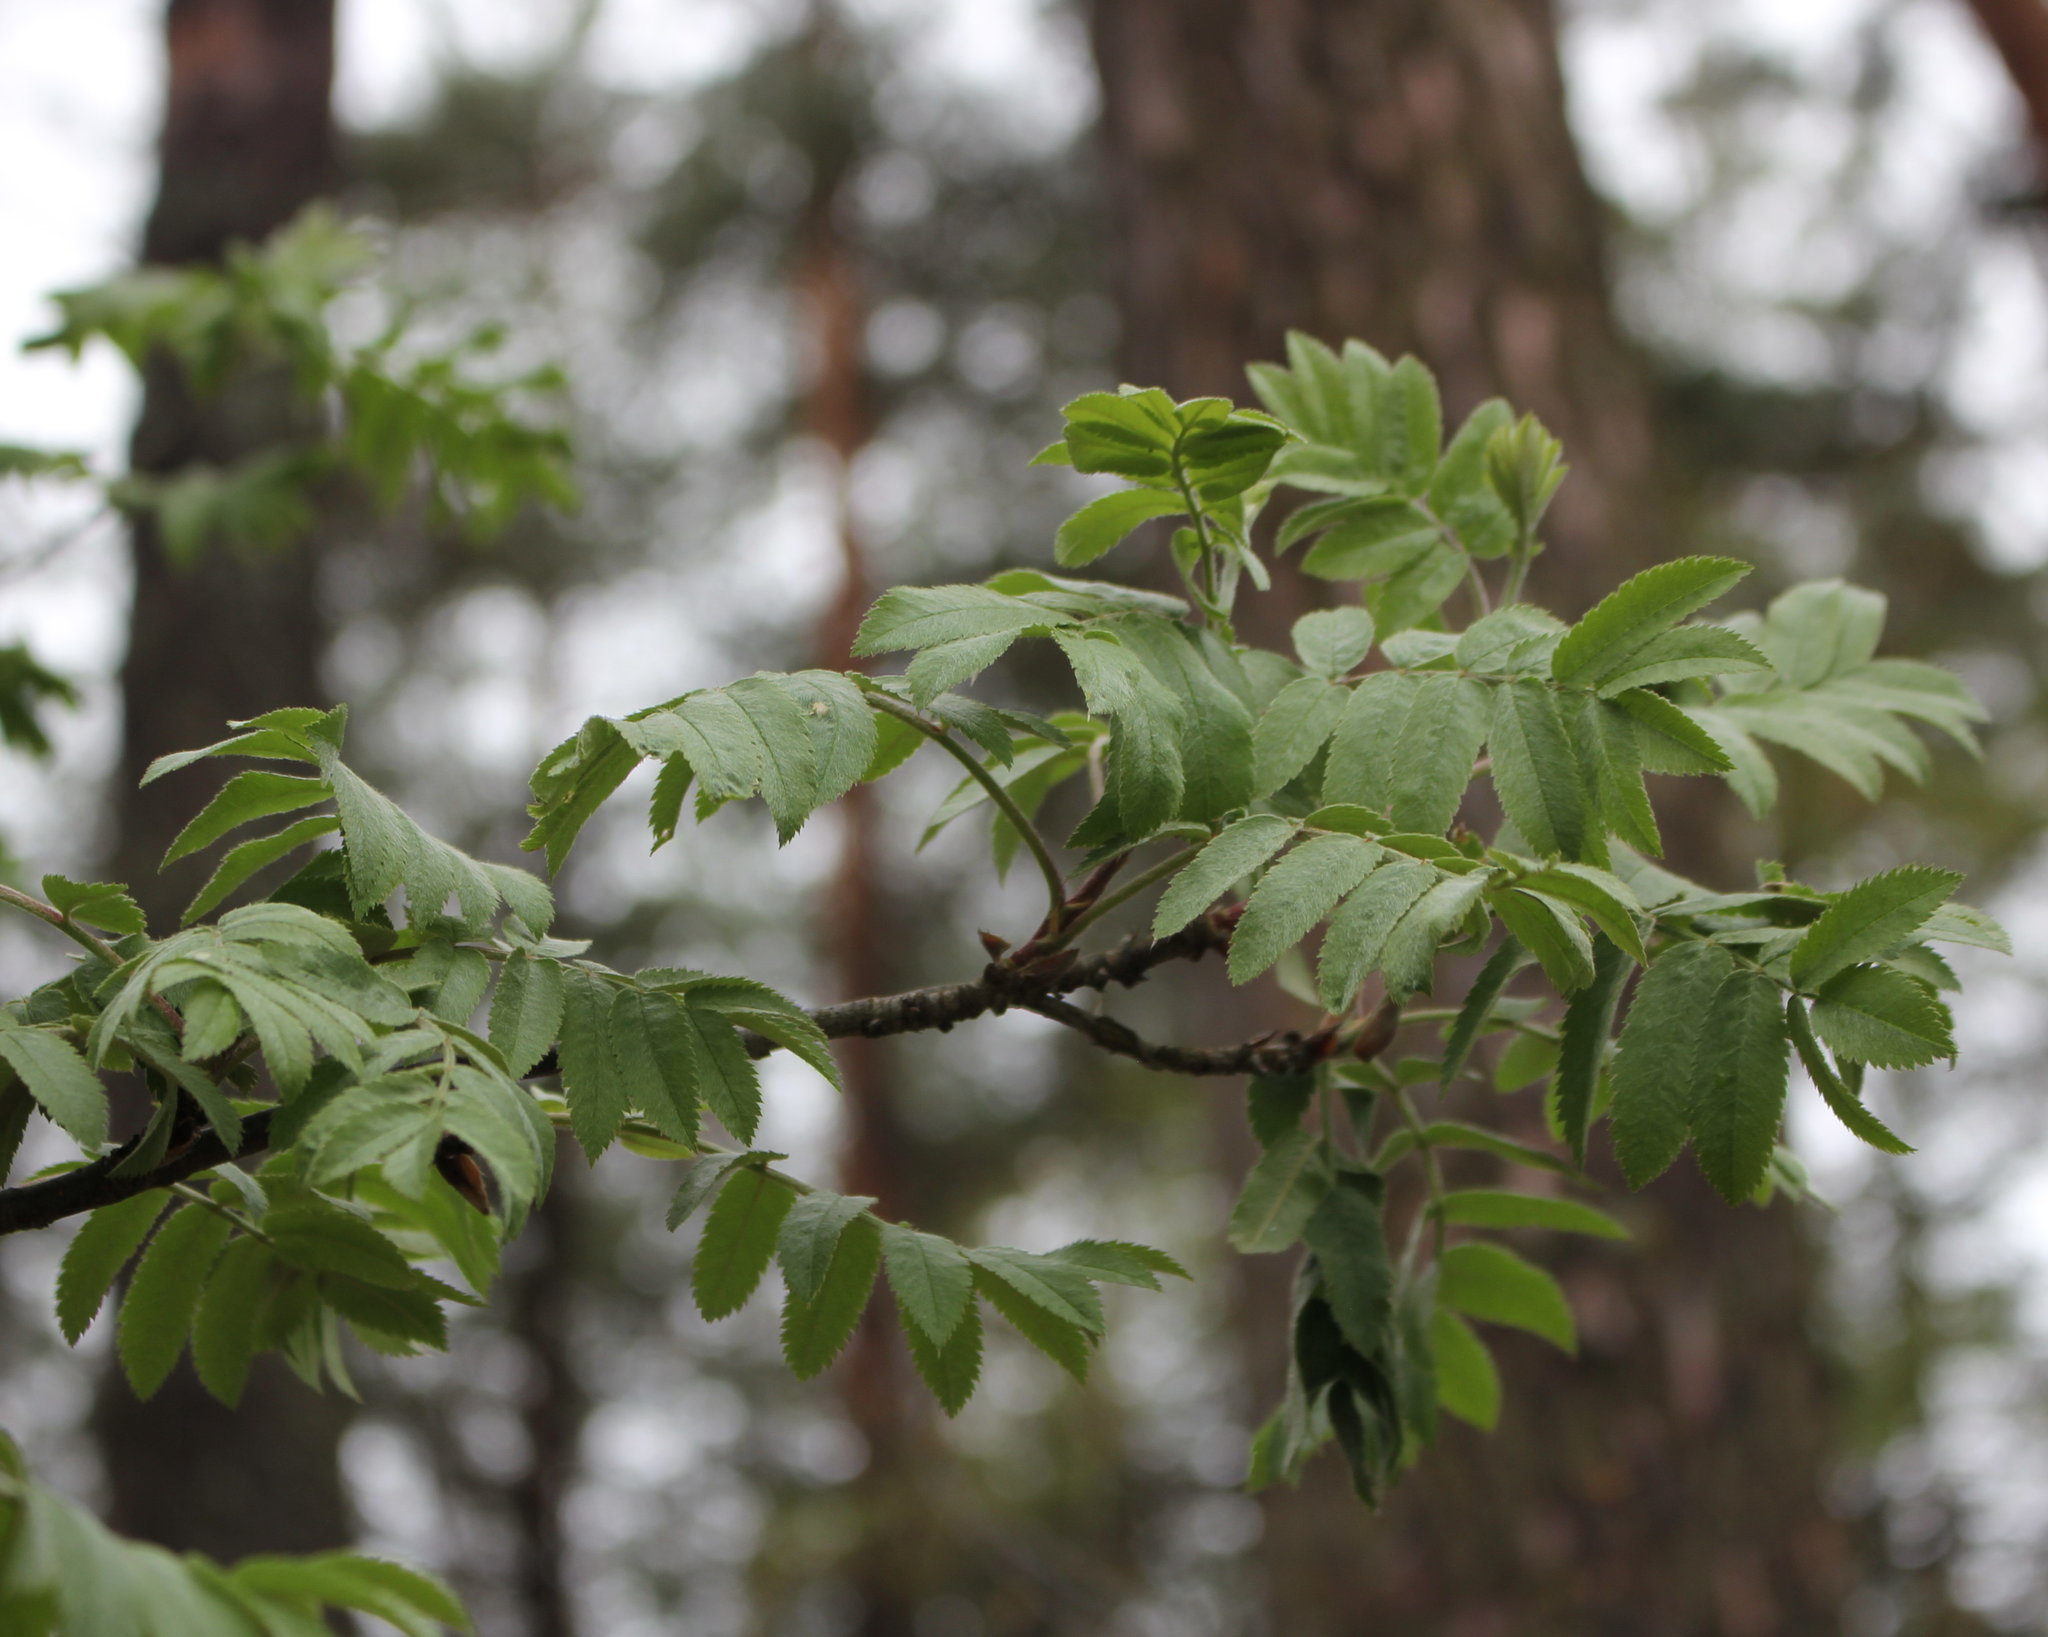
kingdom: Plantae
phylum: Tracheophyta
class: Magnoliopsida
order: Rosales
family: Rosaceae
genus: Sorbus
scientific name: Sorbus aucuparia
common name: Rowan
